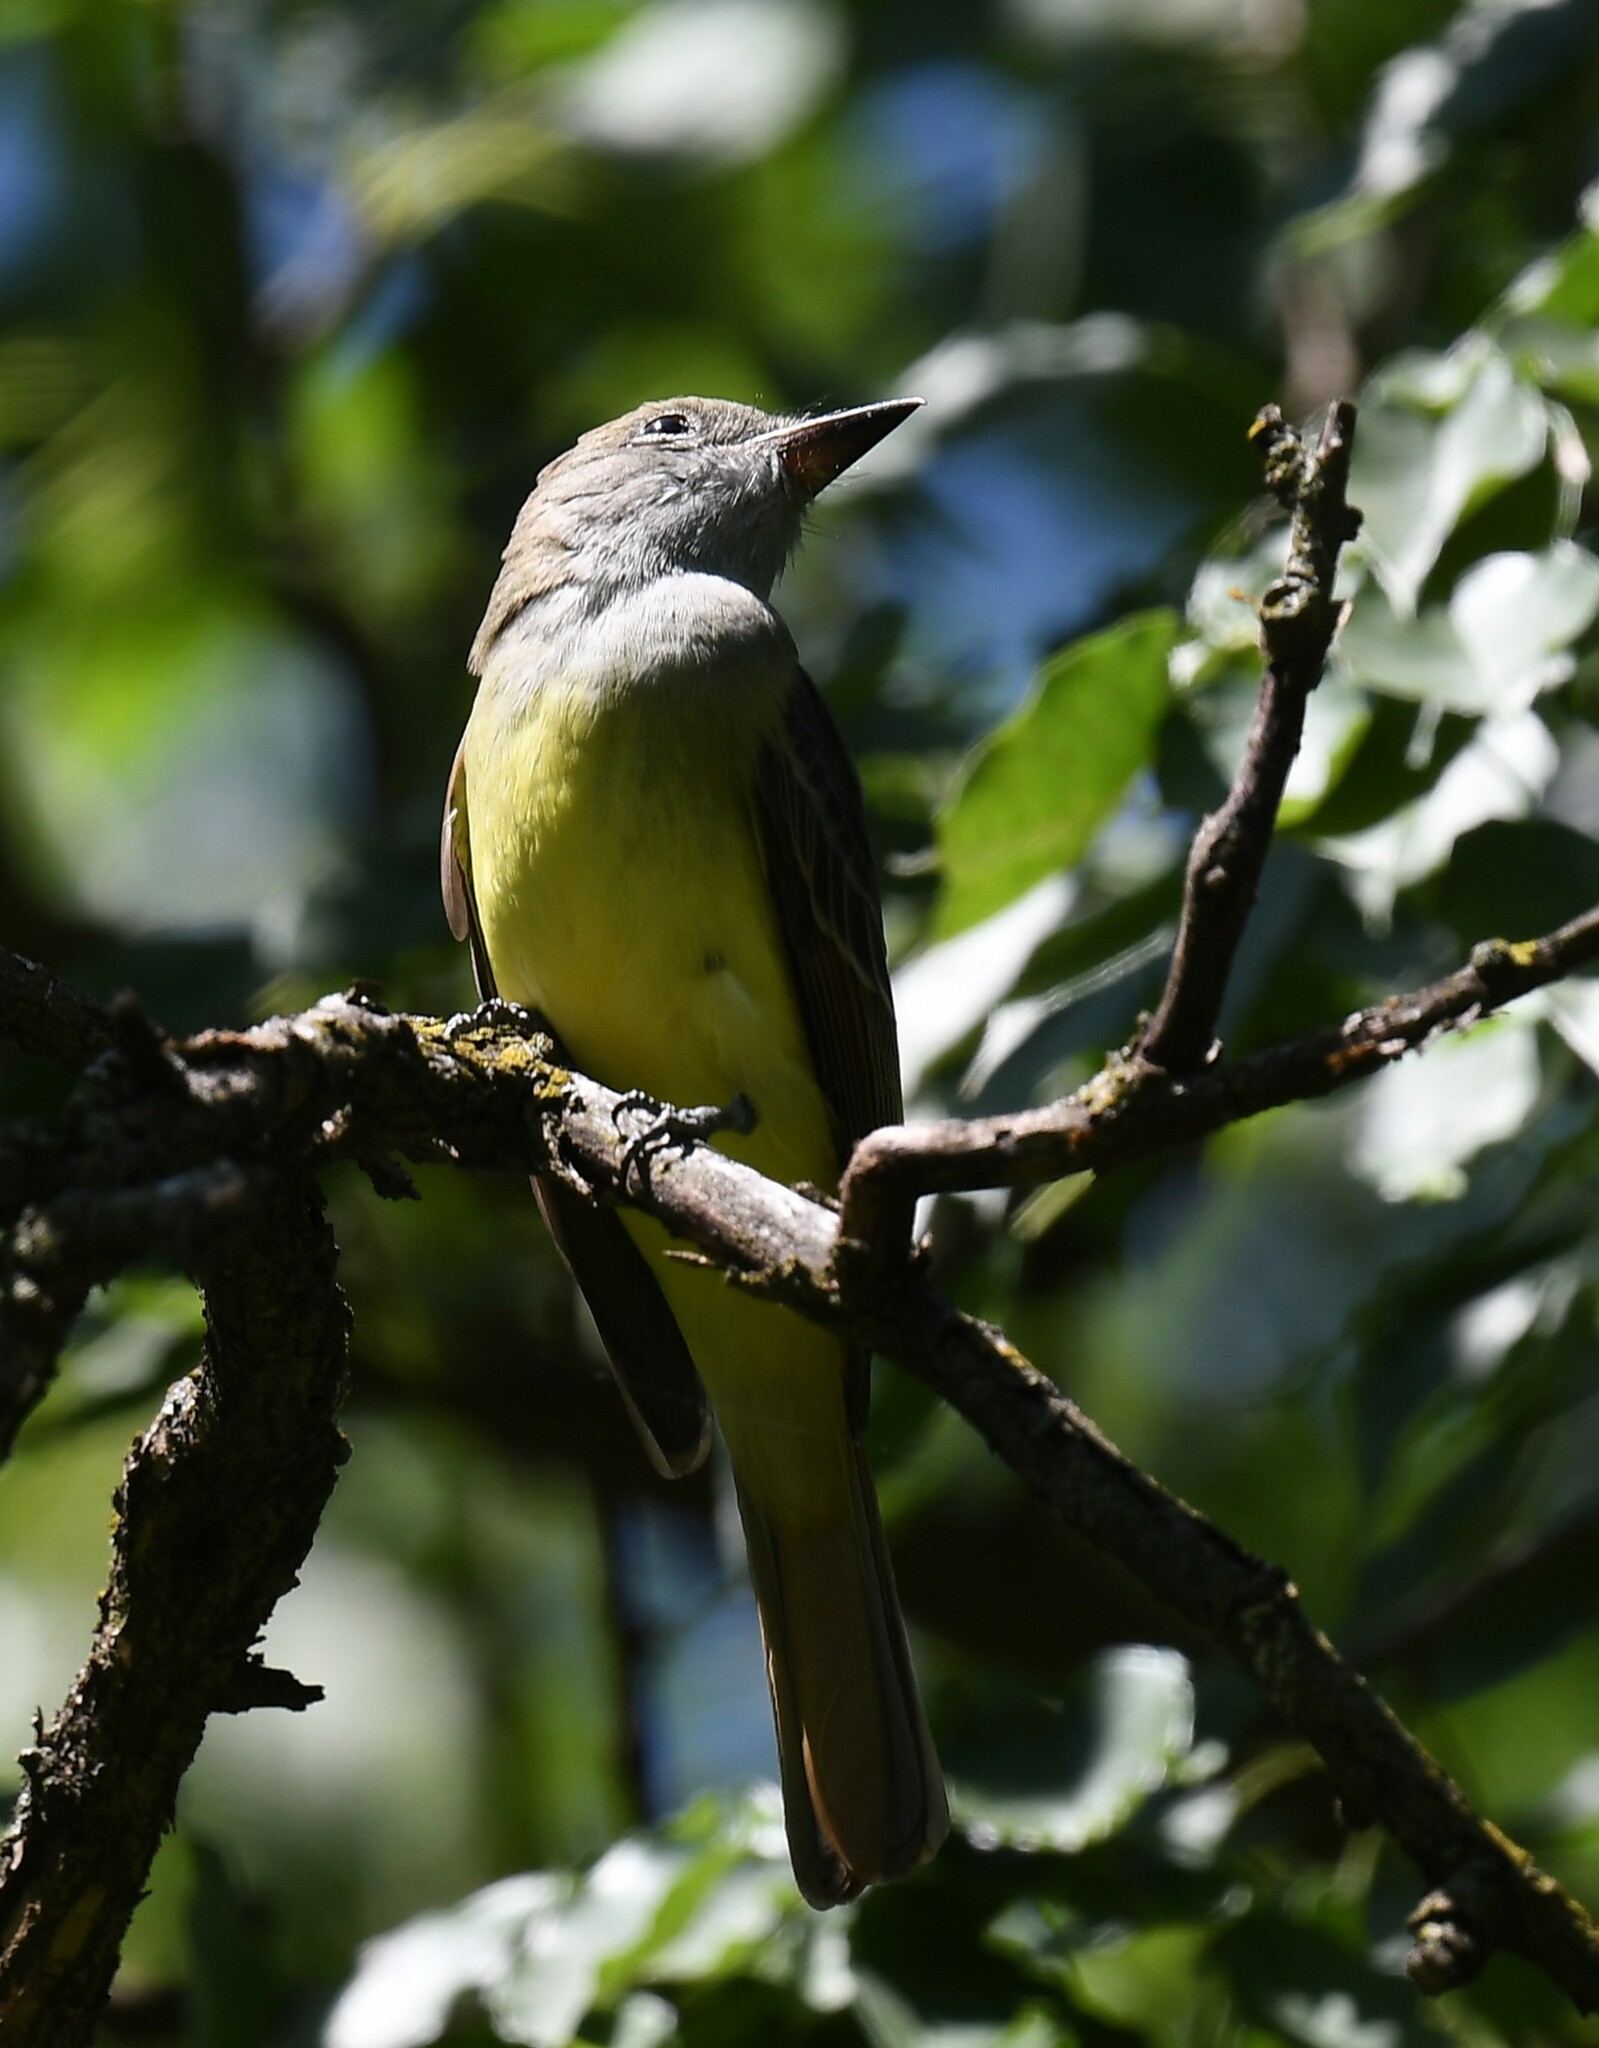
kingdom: Animalia
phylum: Chordata
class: Aves
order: Passeriformes
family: Tyrannidae
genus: Myiarchus
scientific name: Myiarchus crinitus
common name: Great crested flycatcher
